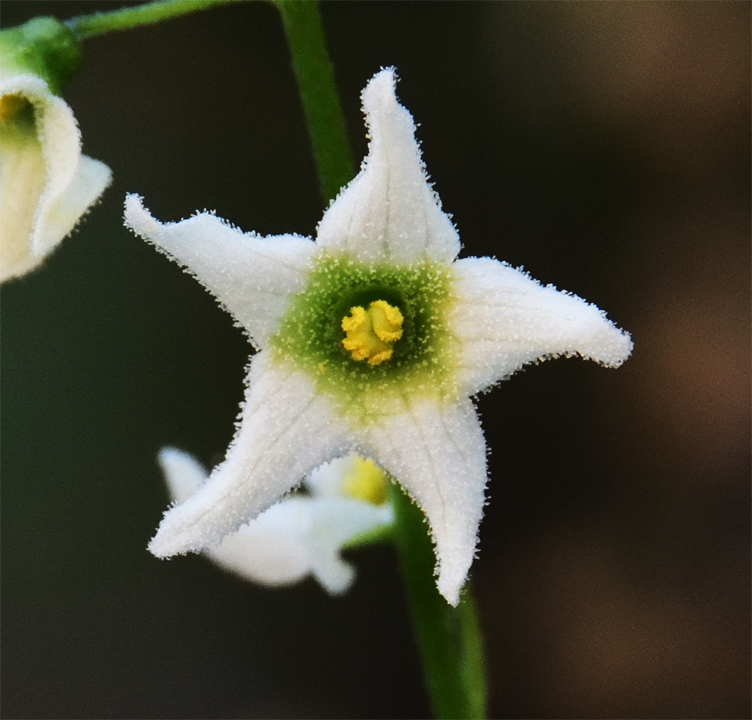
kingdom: Plantae
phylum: Tracheophyta
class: Magnoliopsida
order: Cucurbitales
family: Cucurbitaceae
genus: Marah
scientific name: Marah macrocarpa
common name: Cucamonga manroot
